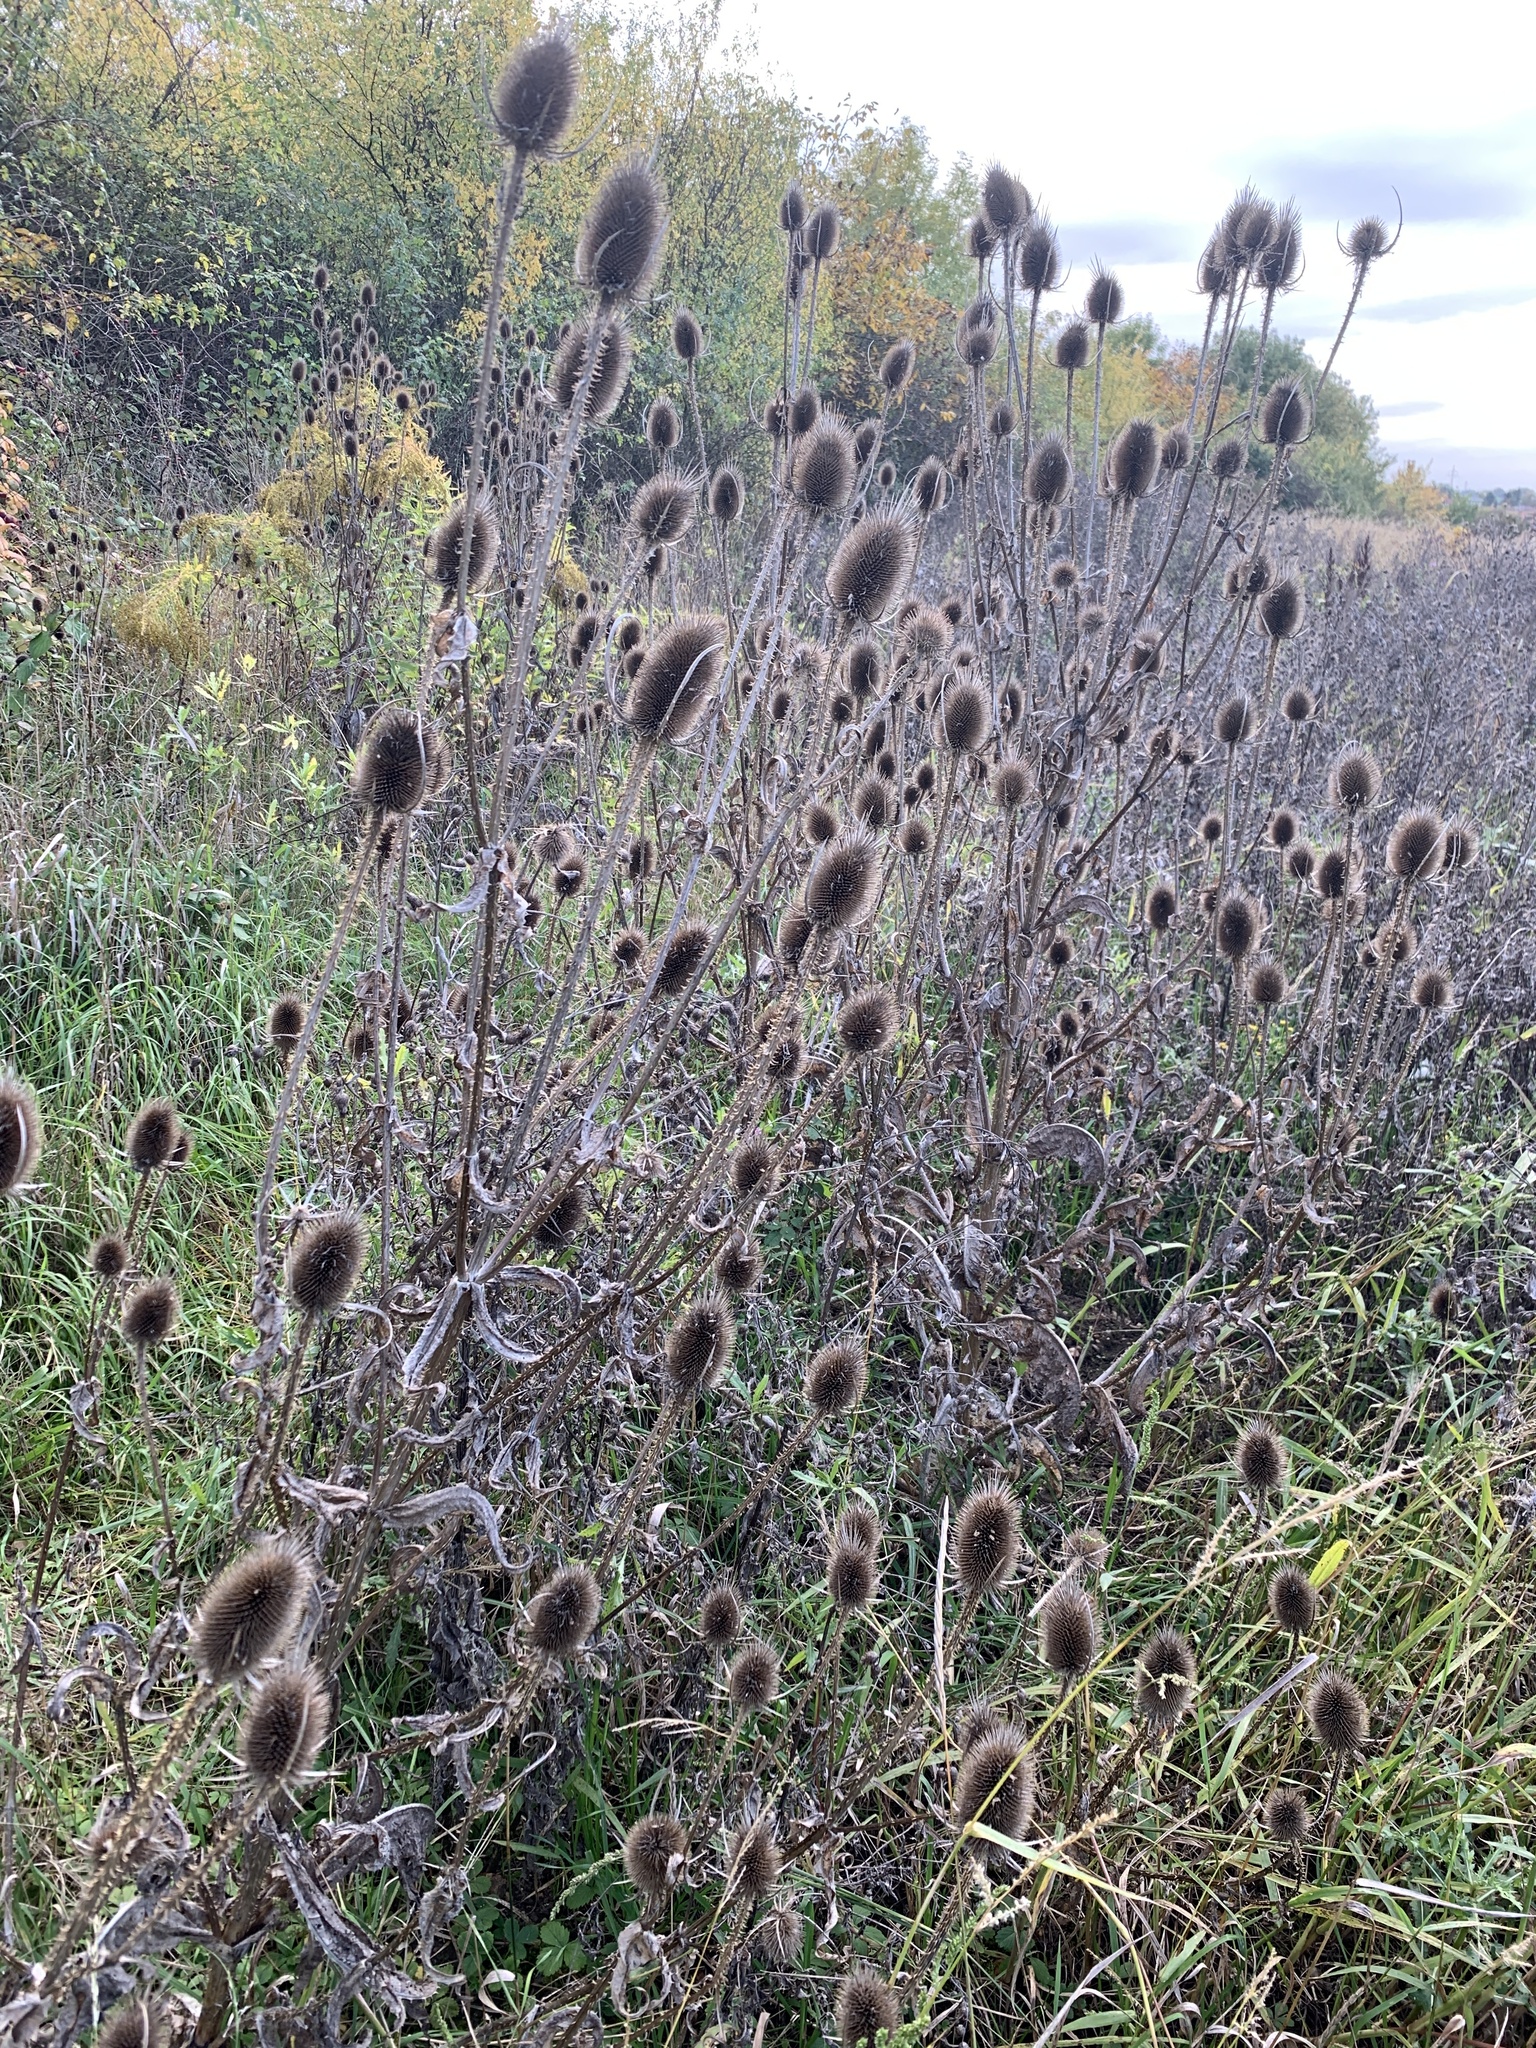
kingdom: Plantae
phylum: Tracheophyta
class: Magnoliopsida
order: Dipsacales
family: Caprifoliaceae
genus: Dipsacus
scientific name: Dipsacus fullonum
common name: Teasel
